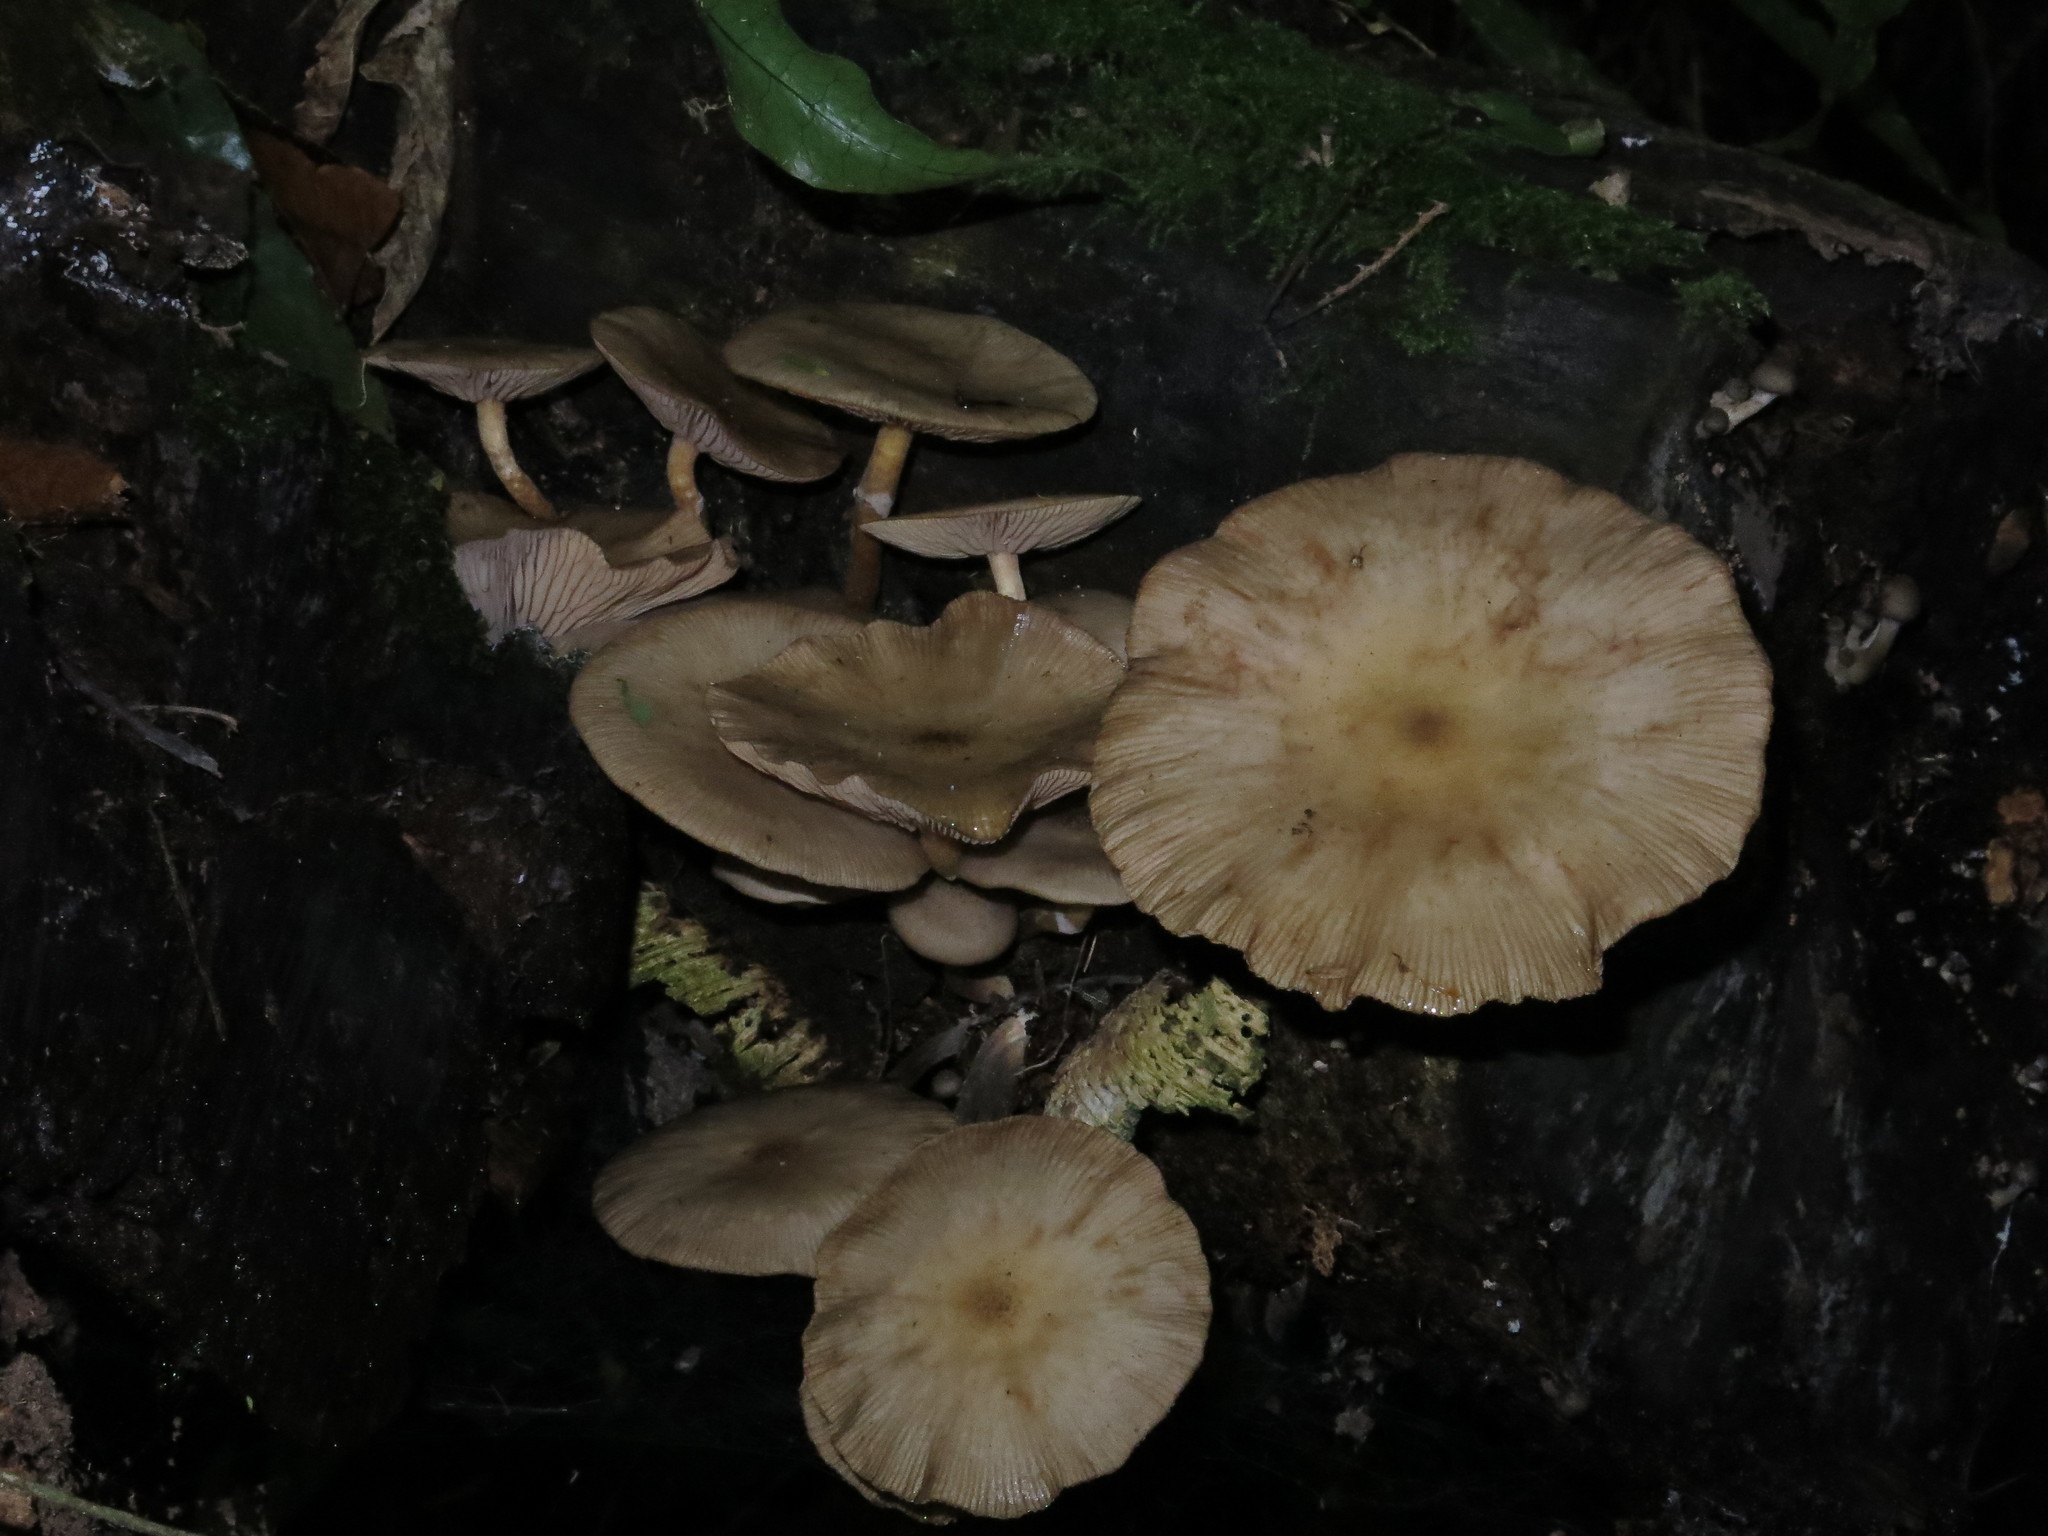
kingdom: Fungi
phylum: Basidiomycota
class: Agaricomycetes
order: Agaricales
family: Physalacriaceae
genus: Armillaria
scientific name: Armillaria novae-zelandiae
